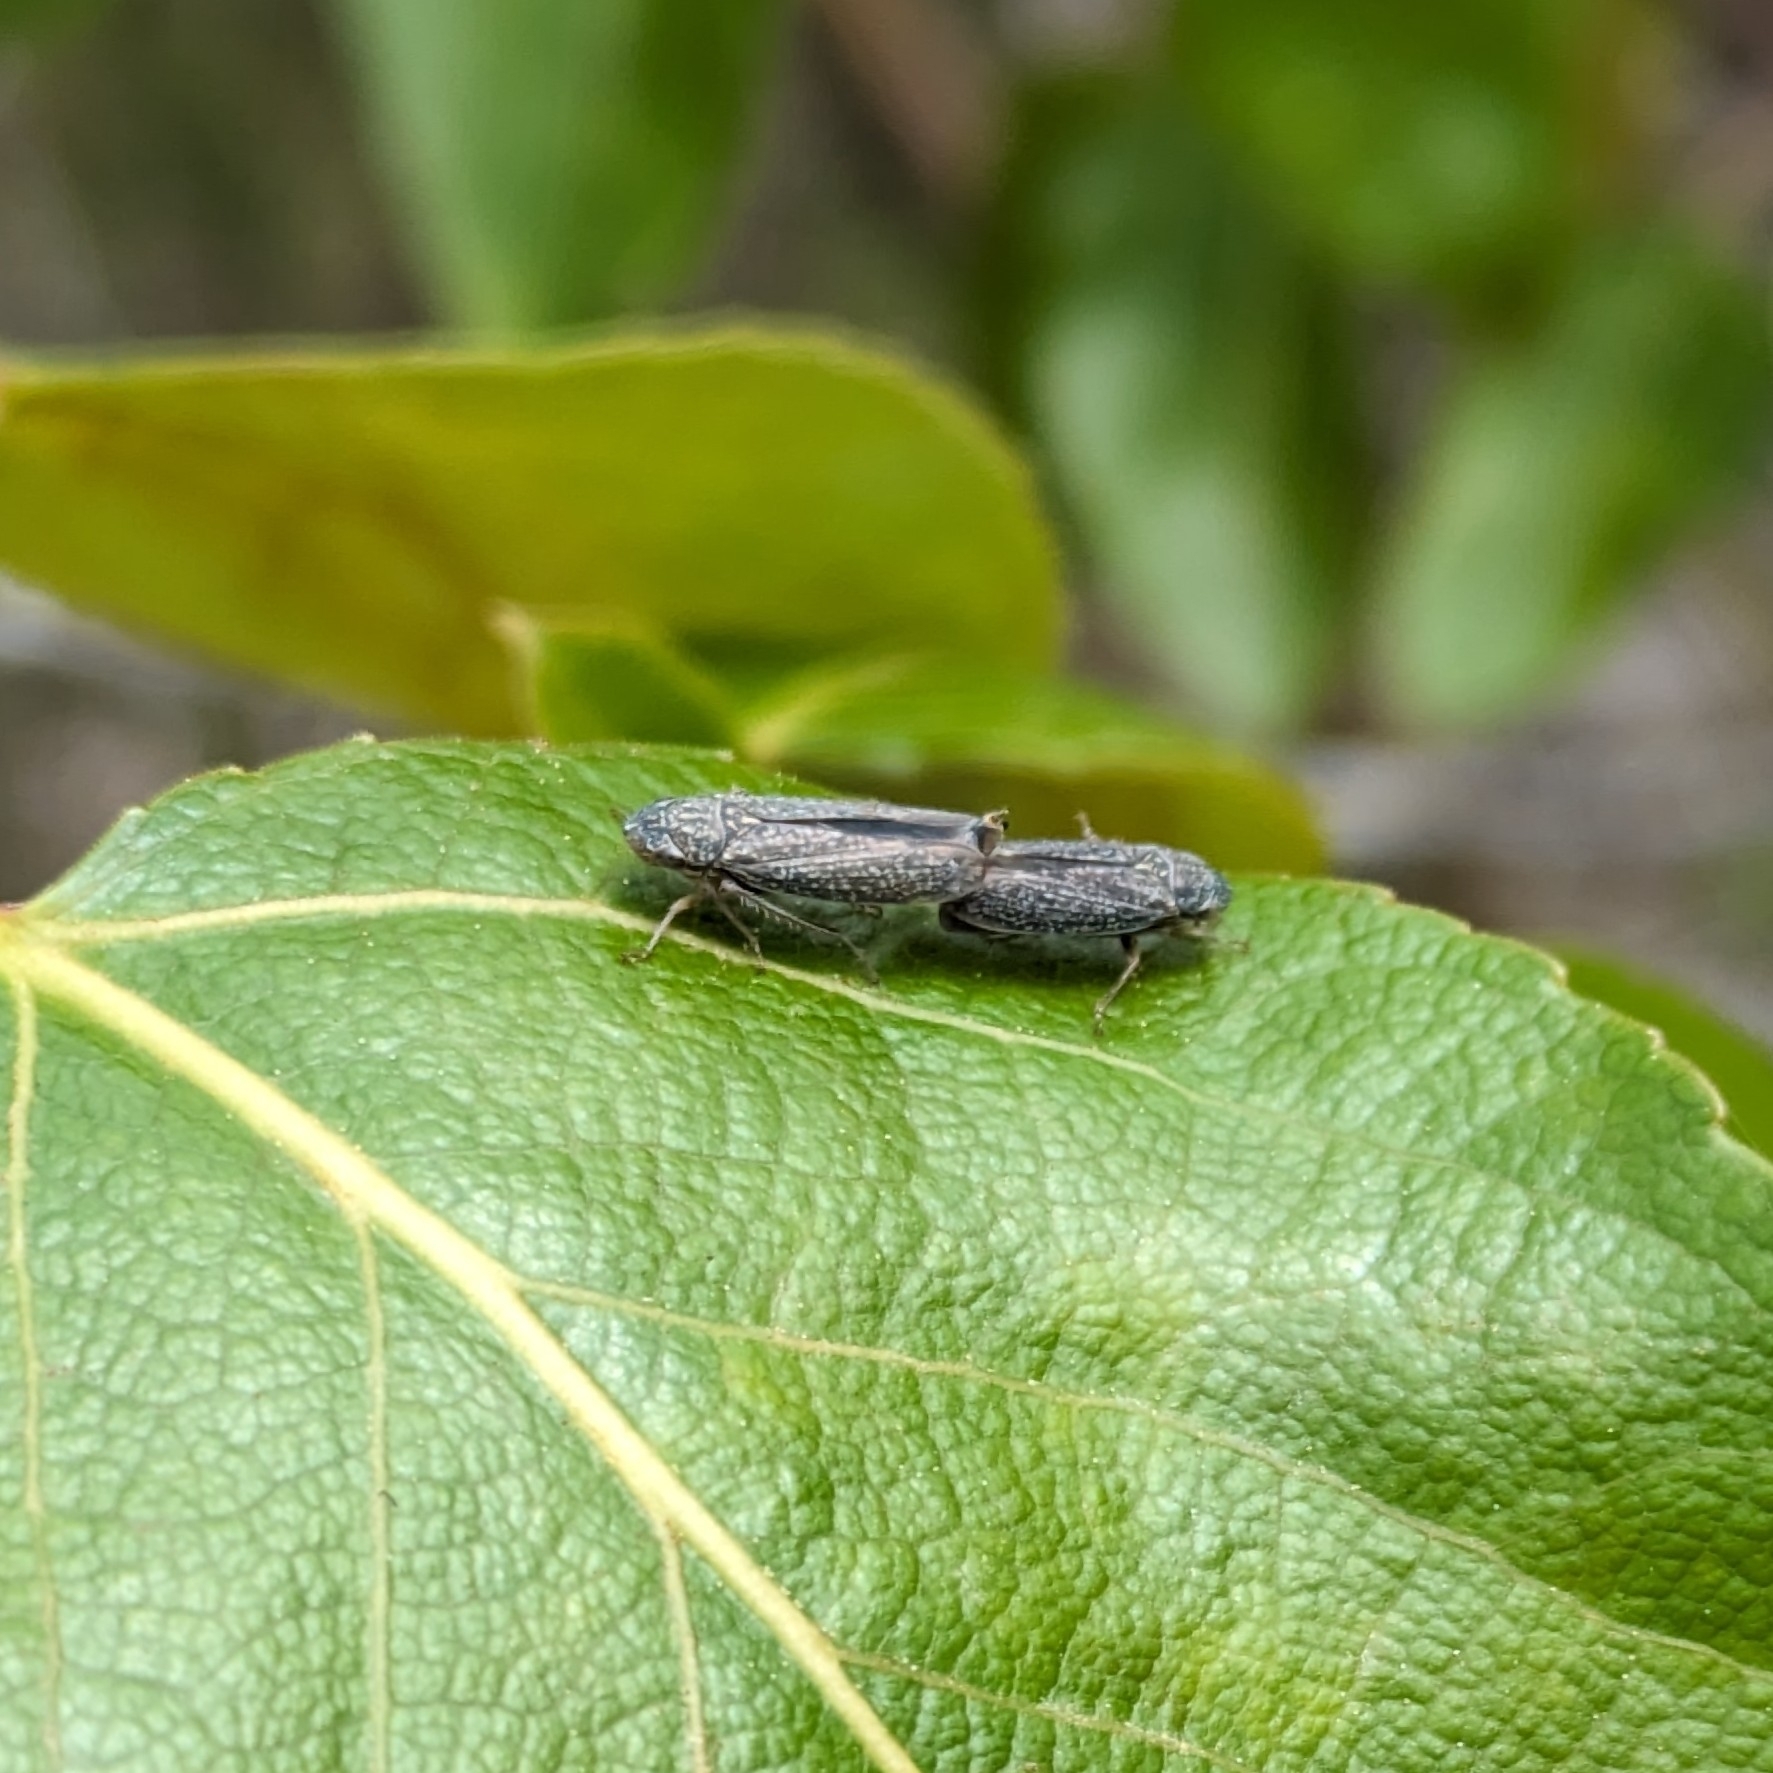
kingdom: Animalia
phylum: Arthropoda
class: Insecta
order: Hemiptera
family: Cicadellidae
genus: Graphocephala
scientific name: Graphocephala confluens
